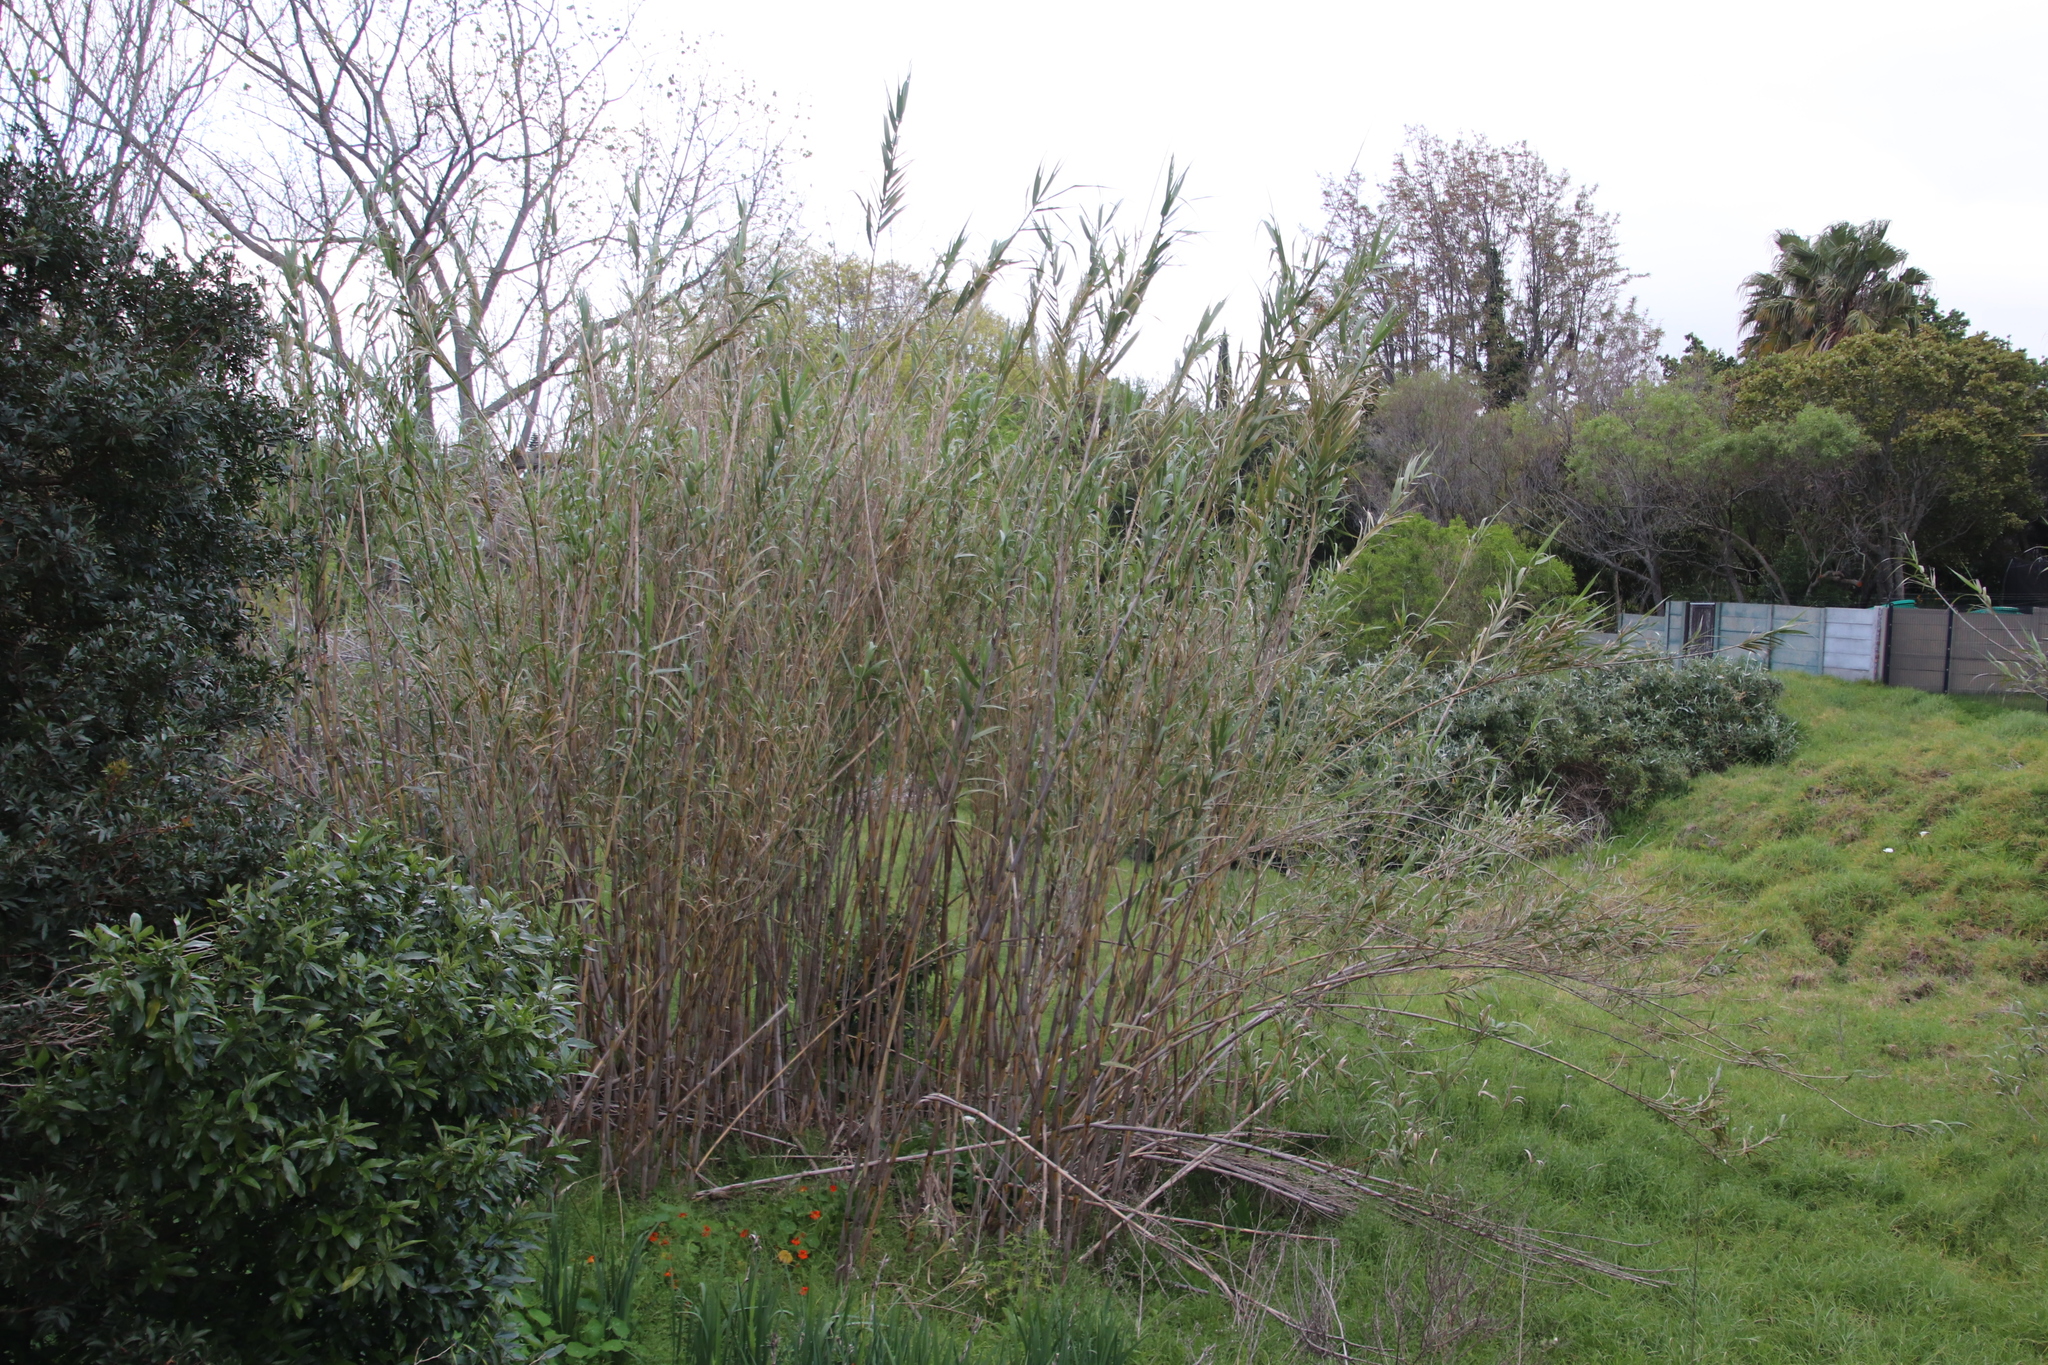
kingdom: Plantae
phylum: Tracheophyta
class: Liliopsida
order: Poales
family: Poaceae
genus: Arundo
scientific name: Arundo donax
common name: Giant reed
